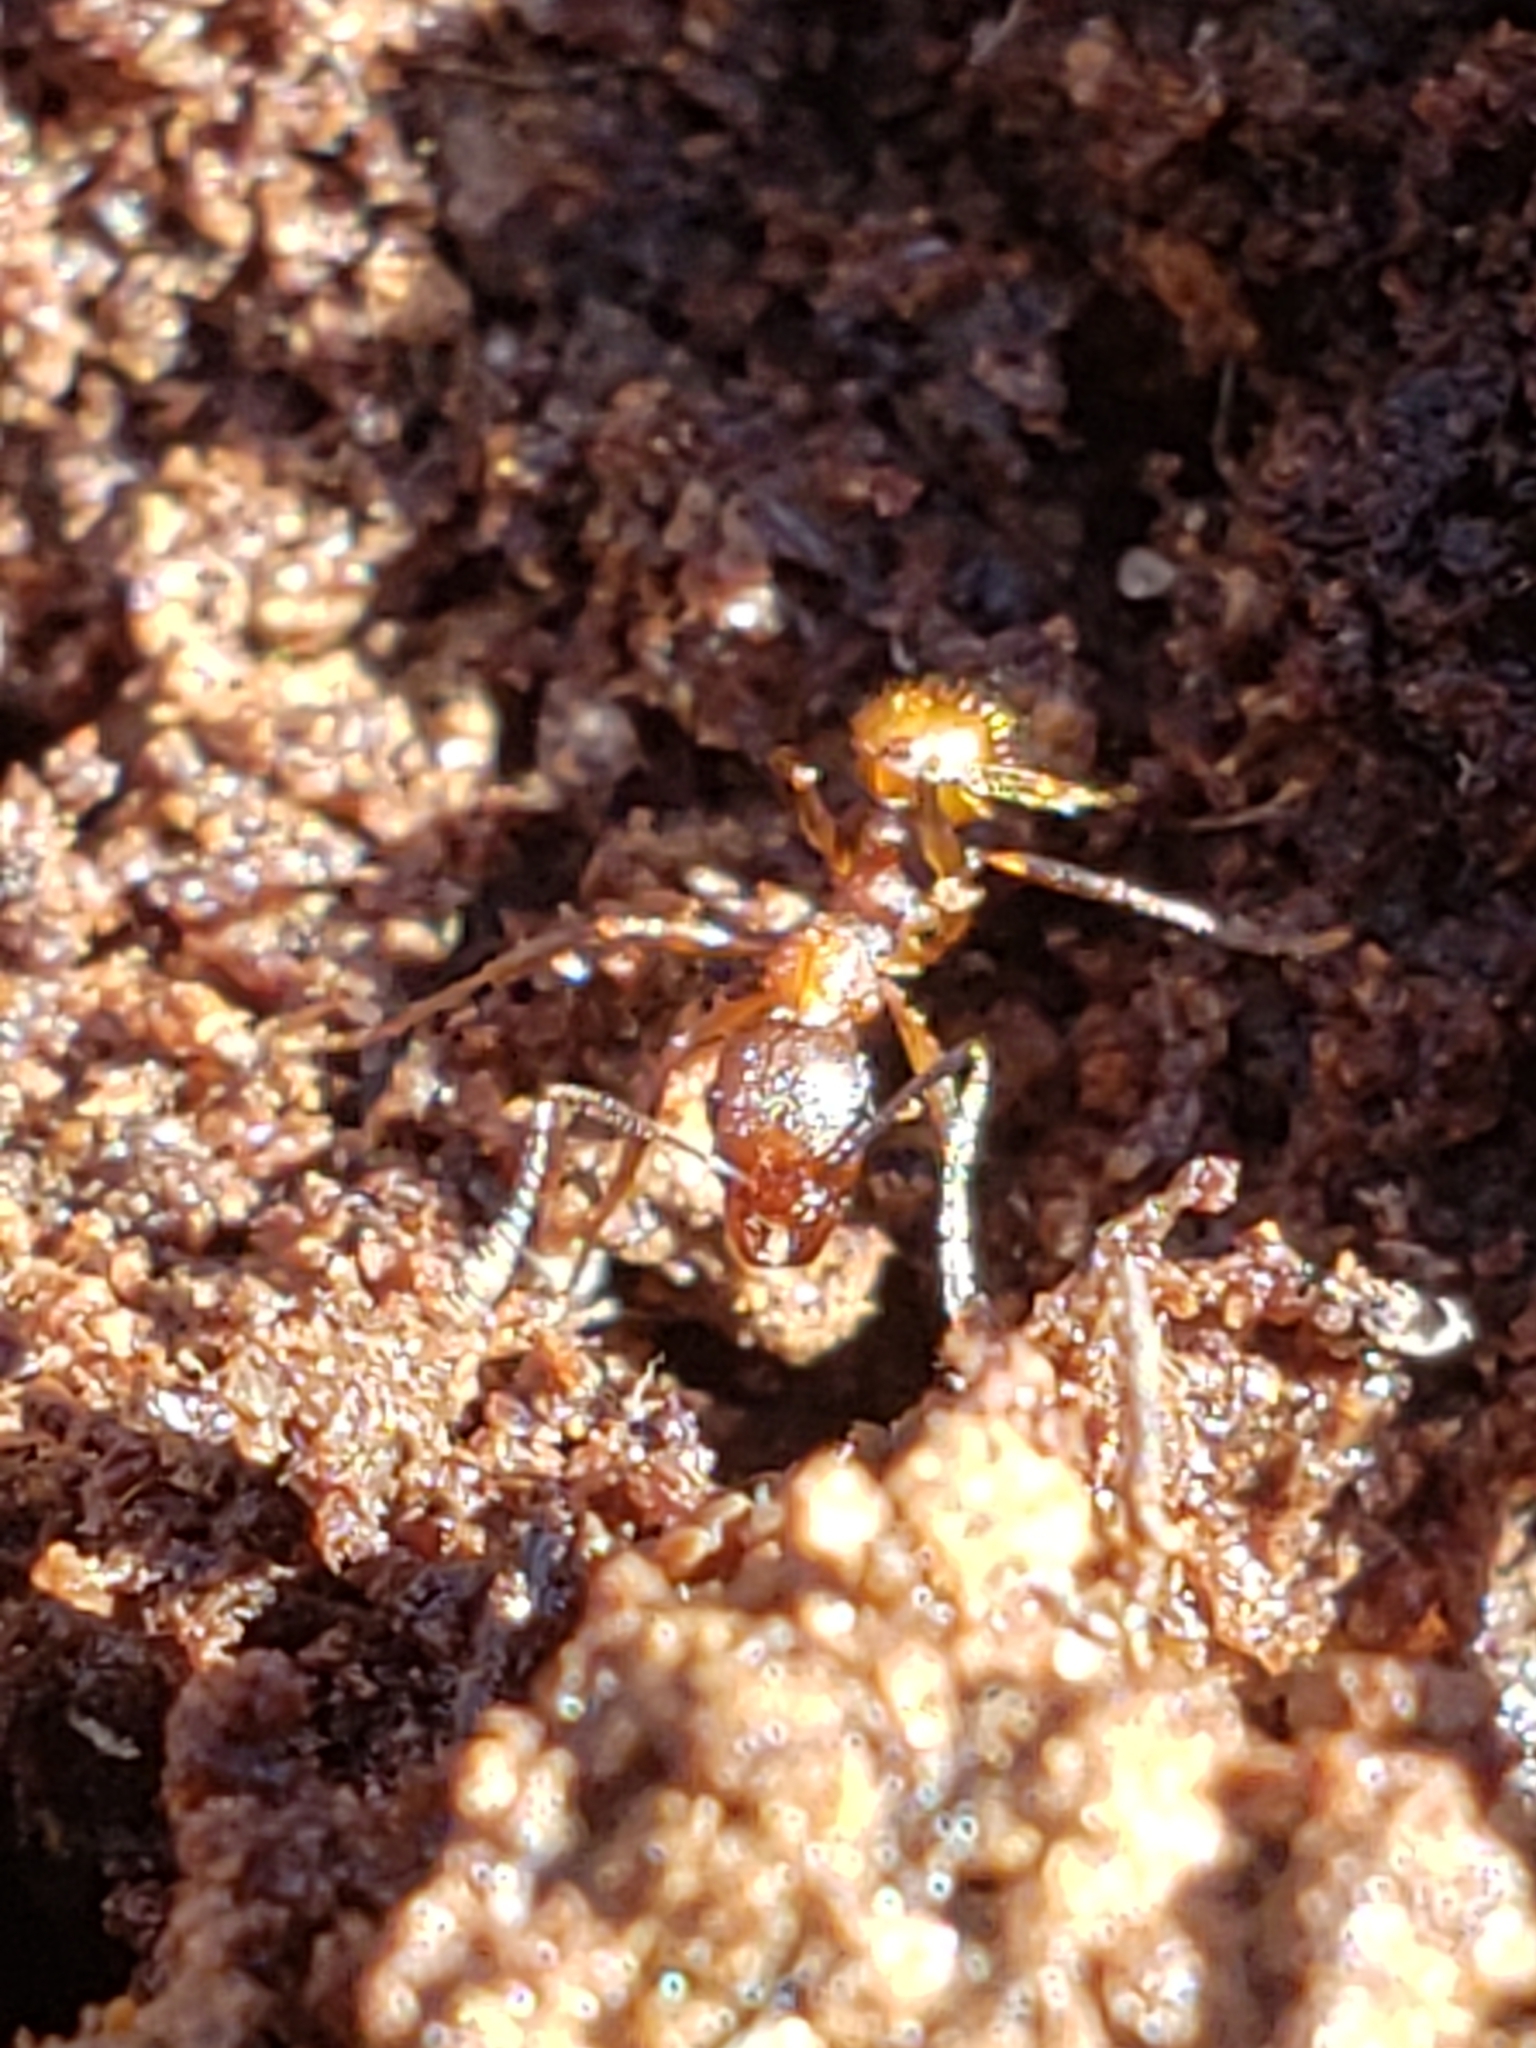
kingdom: Animalia
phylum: Arthropoda
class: Insecta
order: Hymenoptera
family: Formicidae
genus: Aphaenogaster
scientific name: Aphaenogaster fulva
